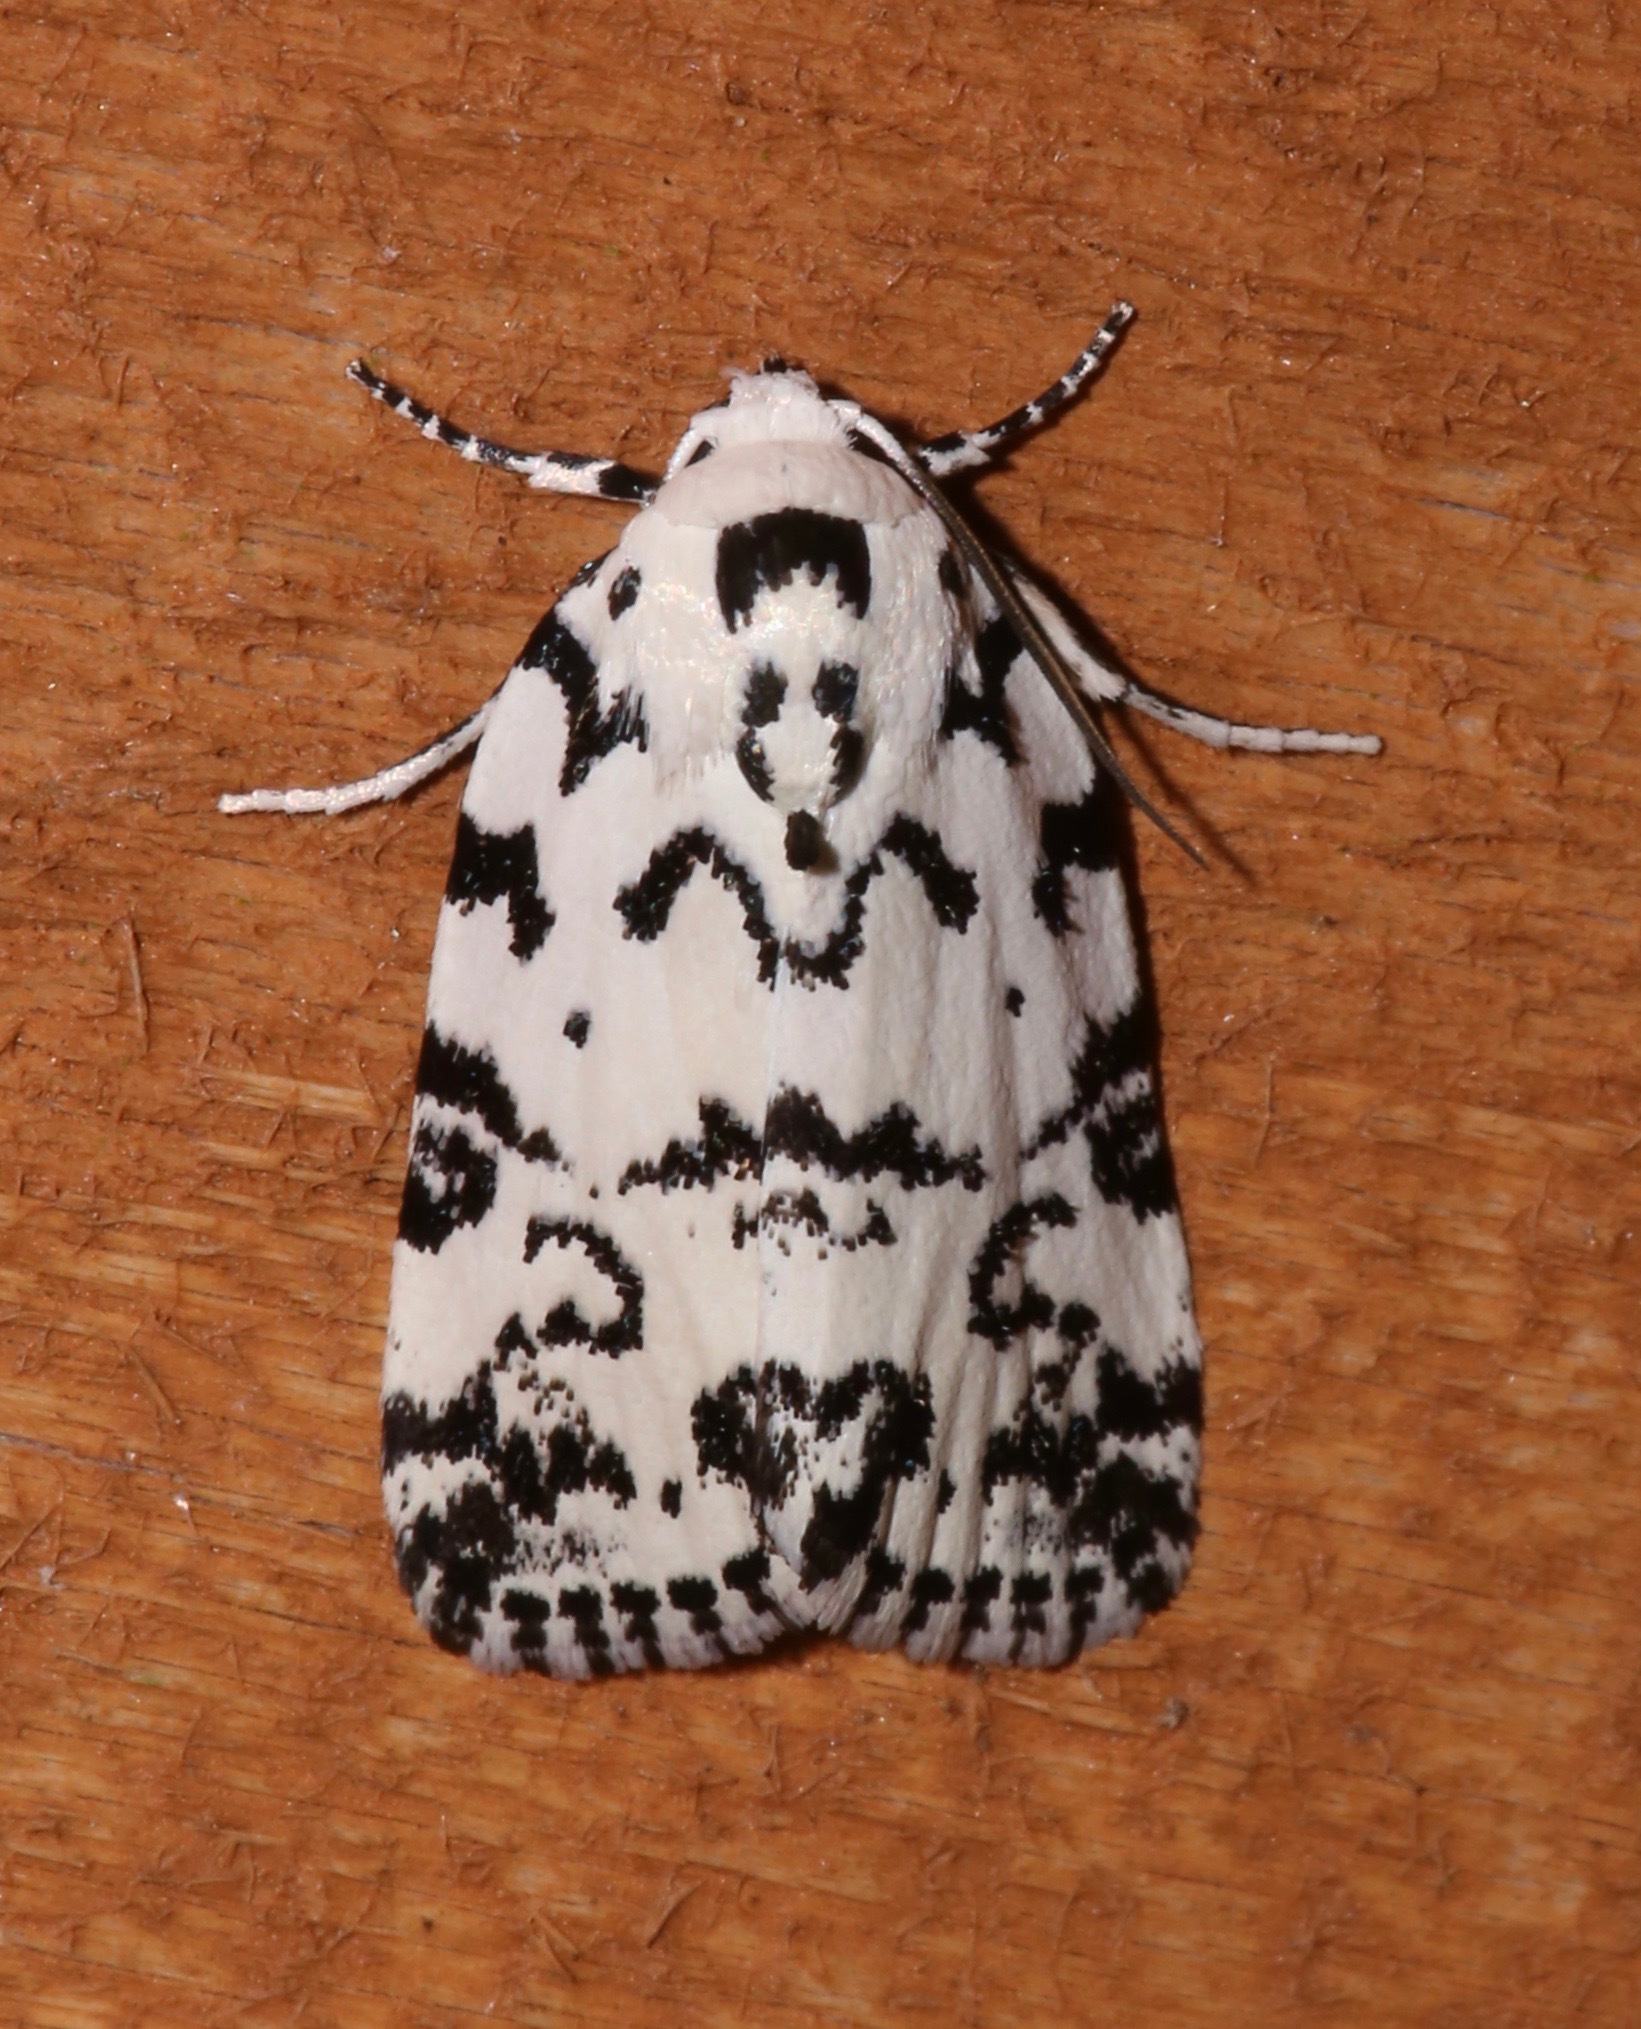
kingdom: Animalia
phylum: Arthropoda
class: Insecta
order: Lepidoptera
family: Noctuidae
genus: Polygrammate
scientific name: Polygrammate hebraeicum
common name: Hebrew moth
